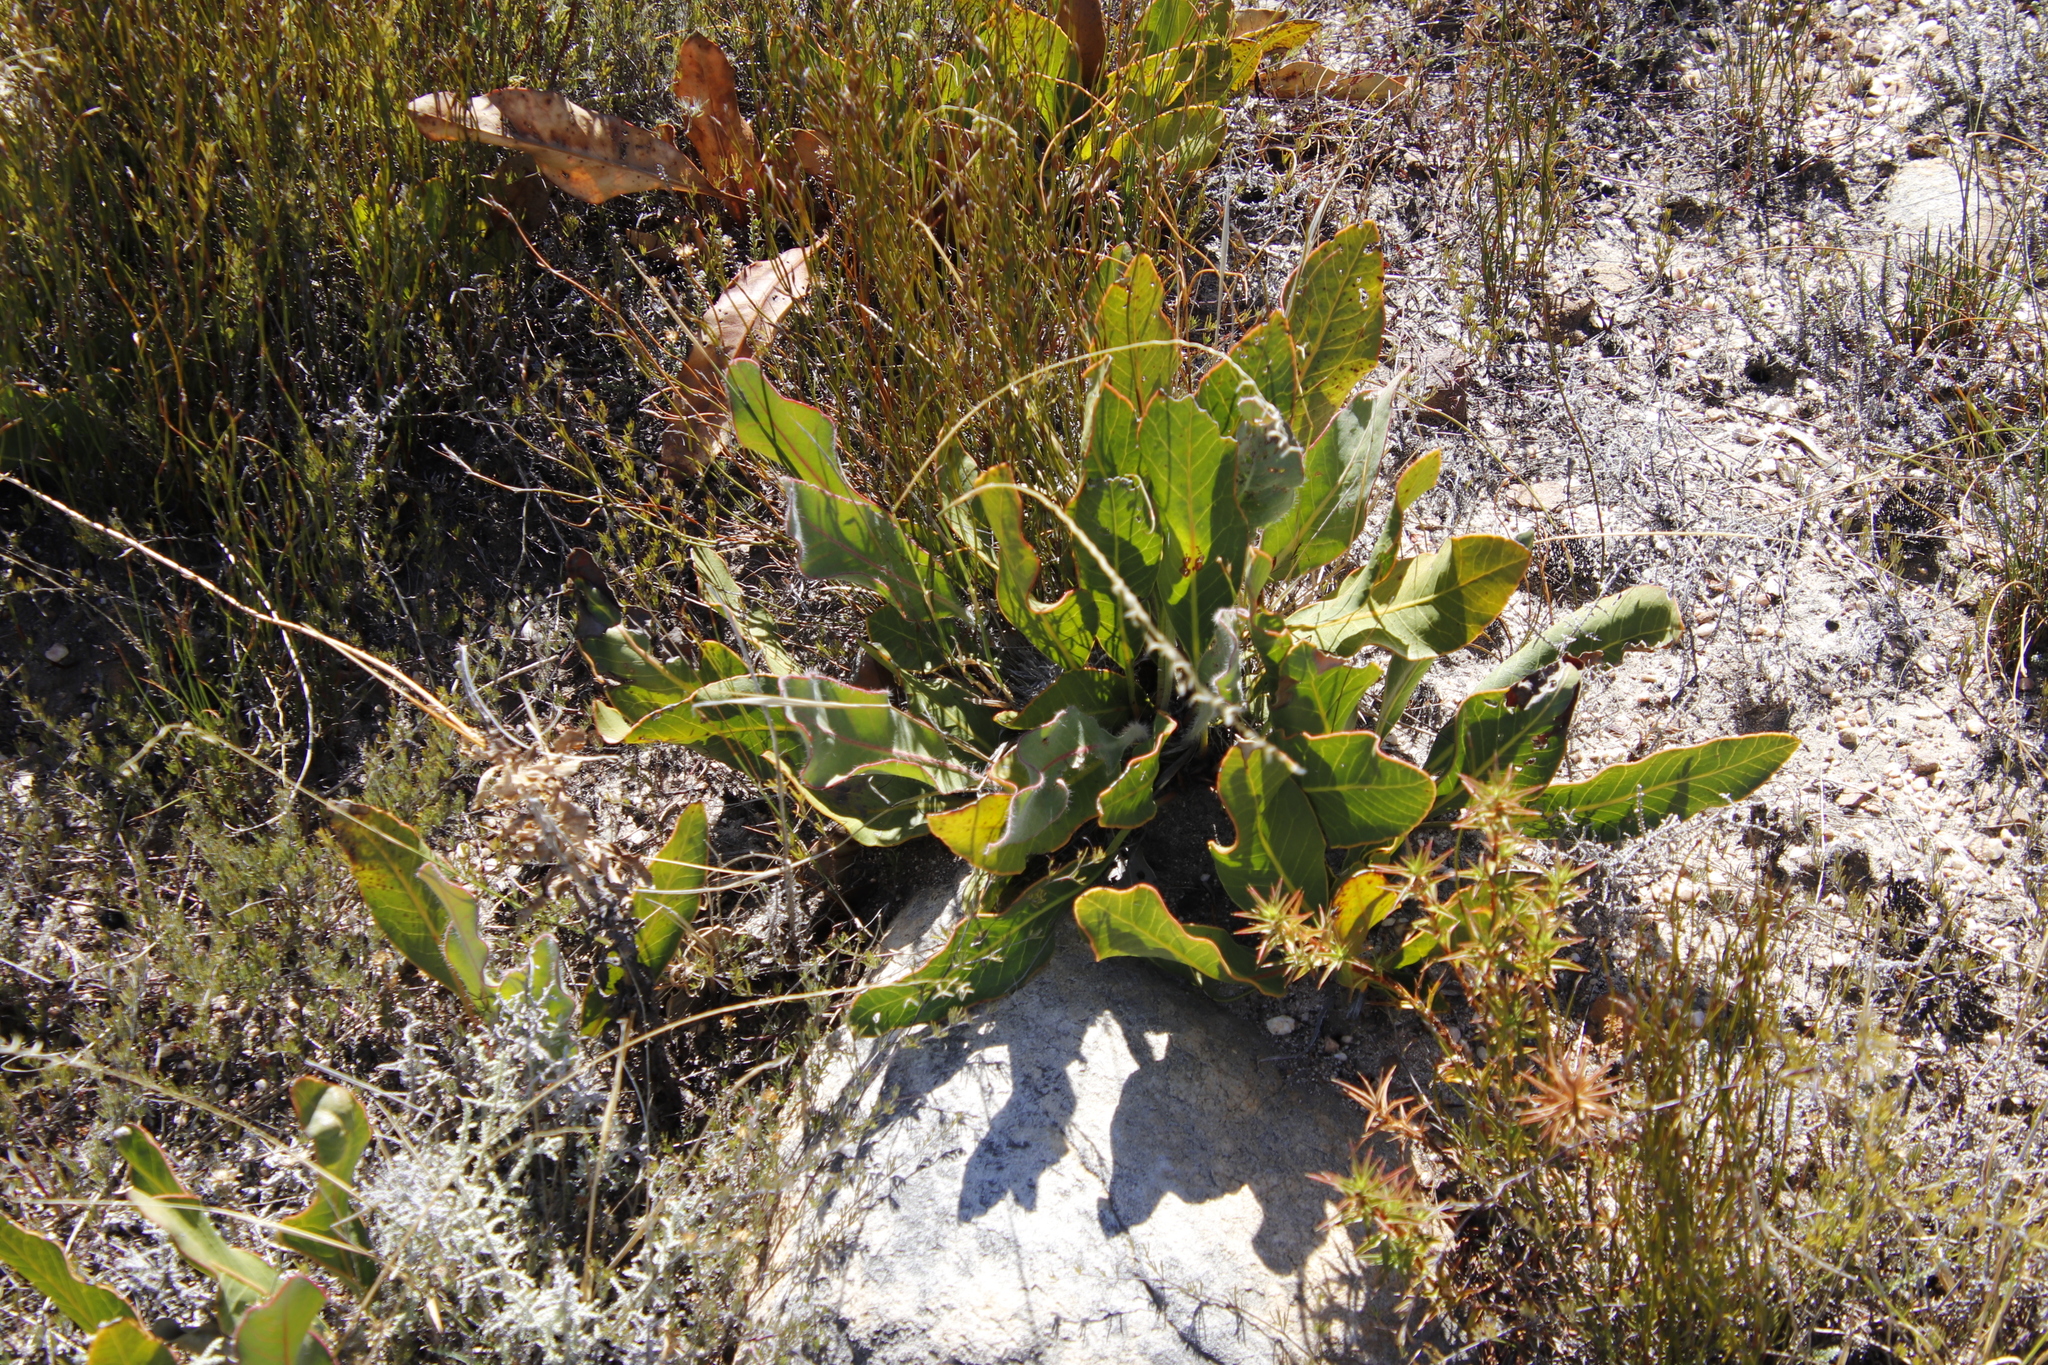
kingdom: Plantae
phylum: Tracheophyta
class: Magnoliopsida
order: Proteales
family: Proteaceae
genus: Protea
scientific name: Protea scolopendriifolia
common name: Harts-tongue-fern sugarbush
